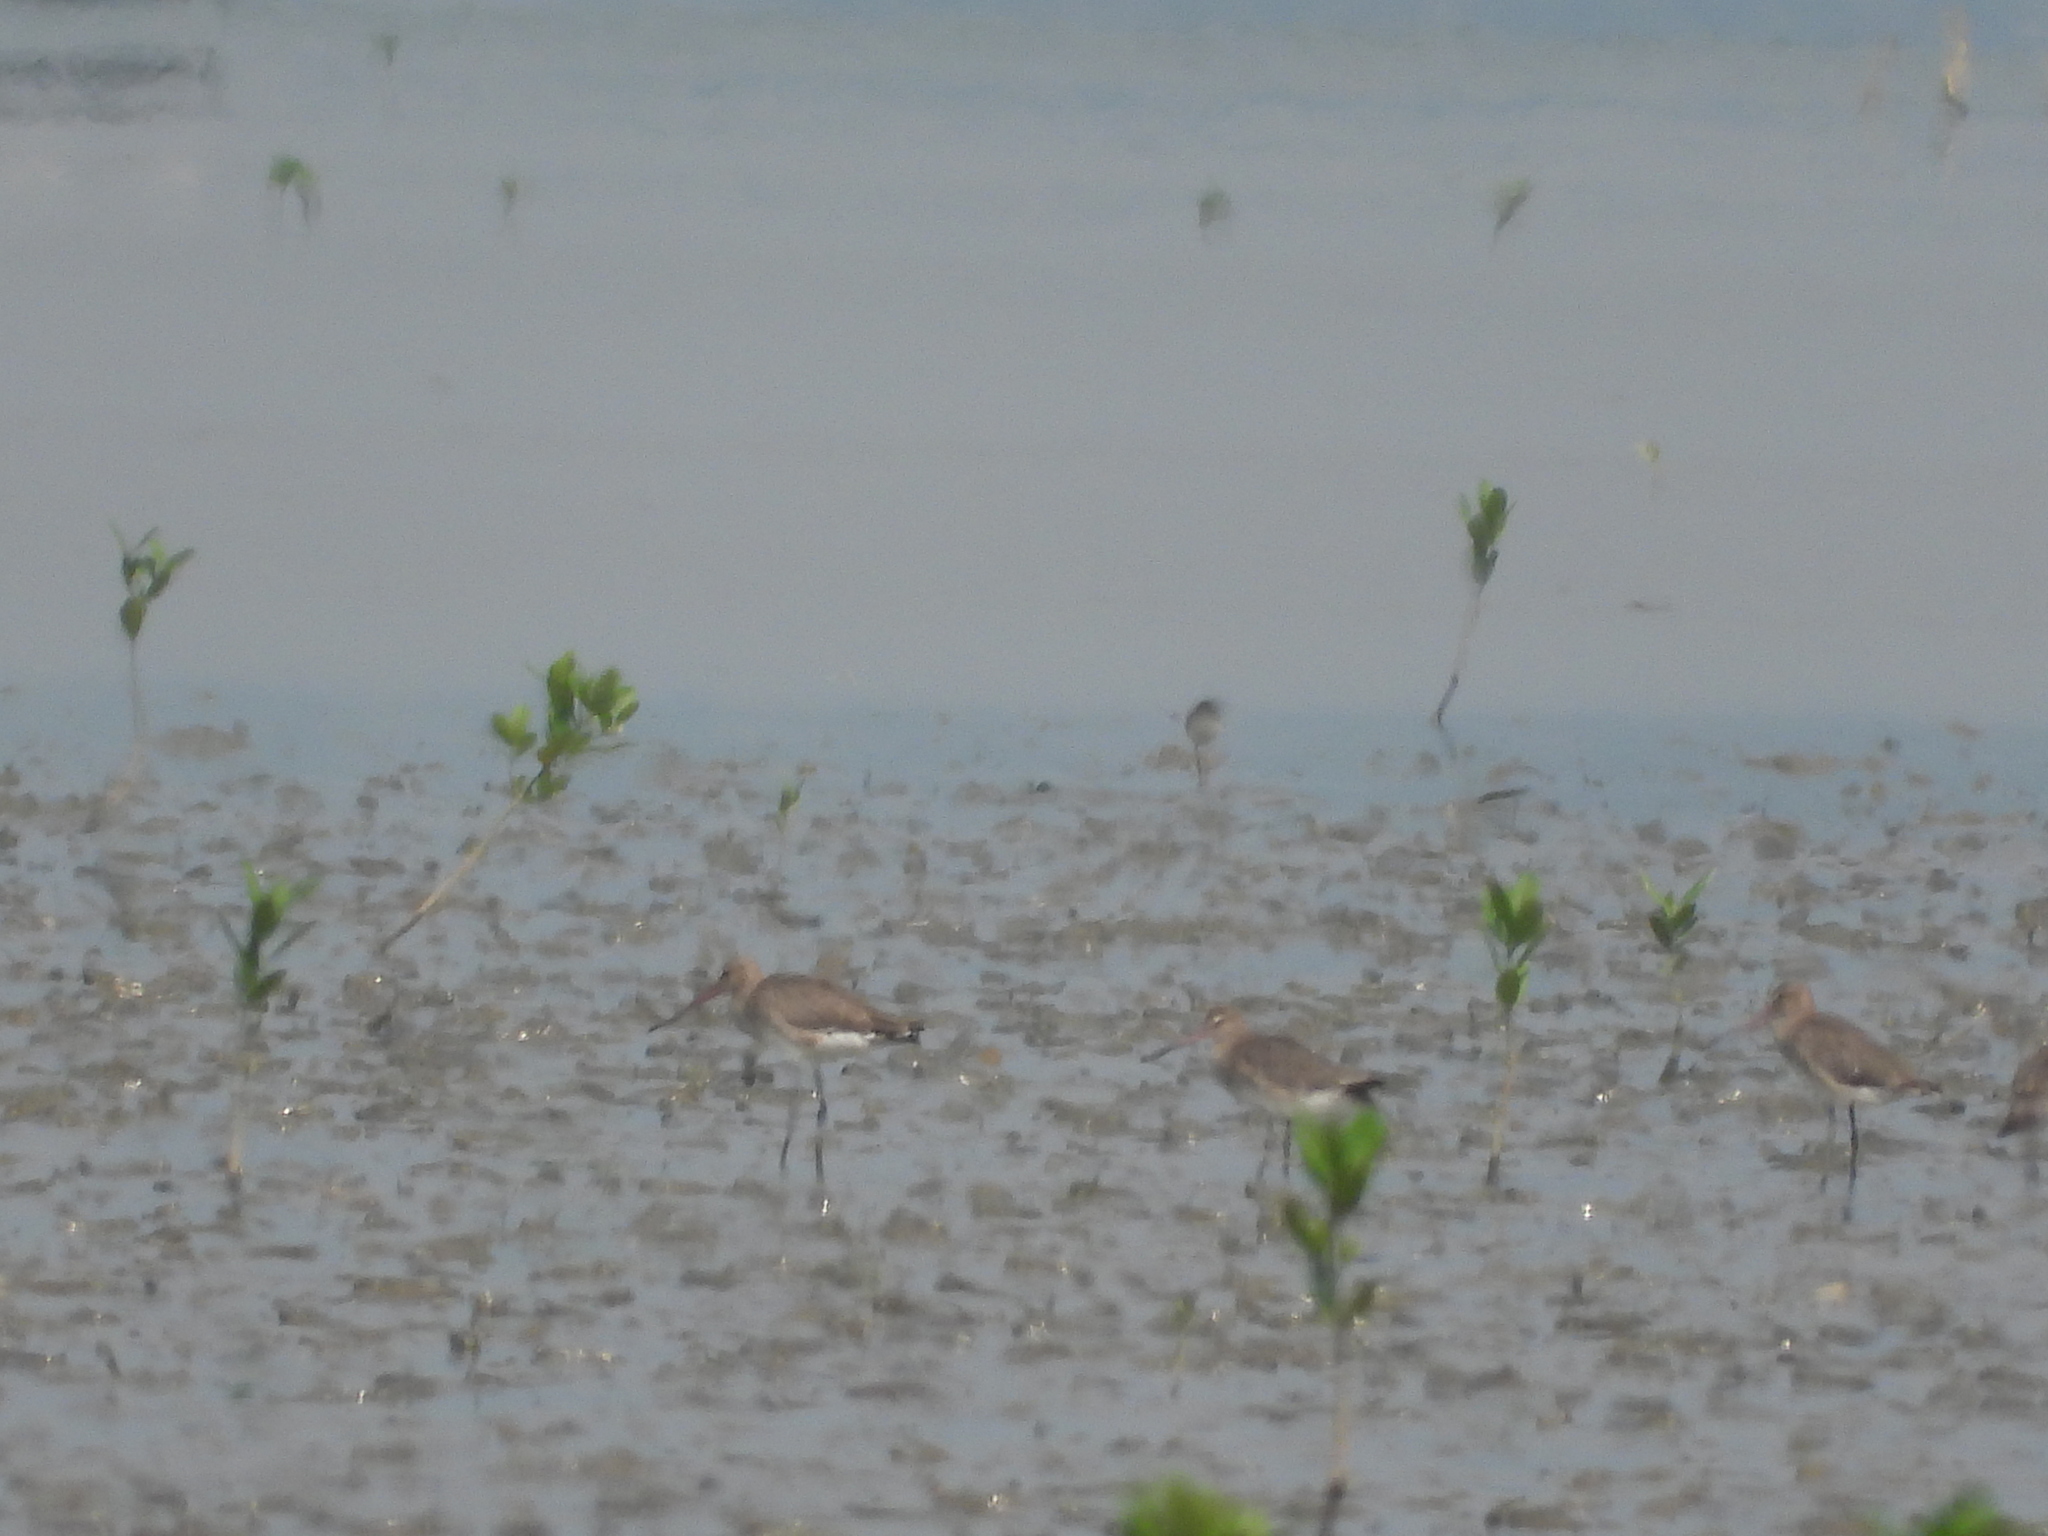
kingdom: Animalia
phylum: Chordata
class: Aves
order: Charadriiformes
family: Scolopacidae
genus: Limosa
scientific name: Limosa limosa
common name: Black-tailed godwit
